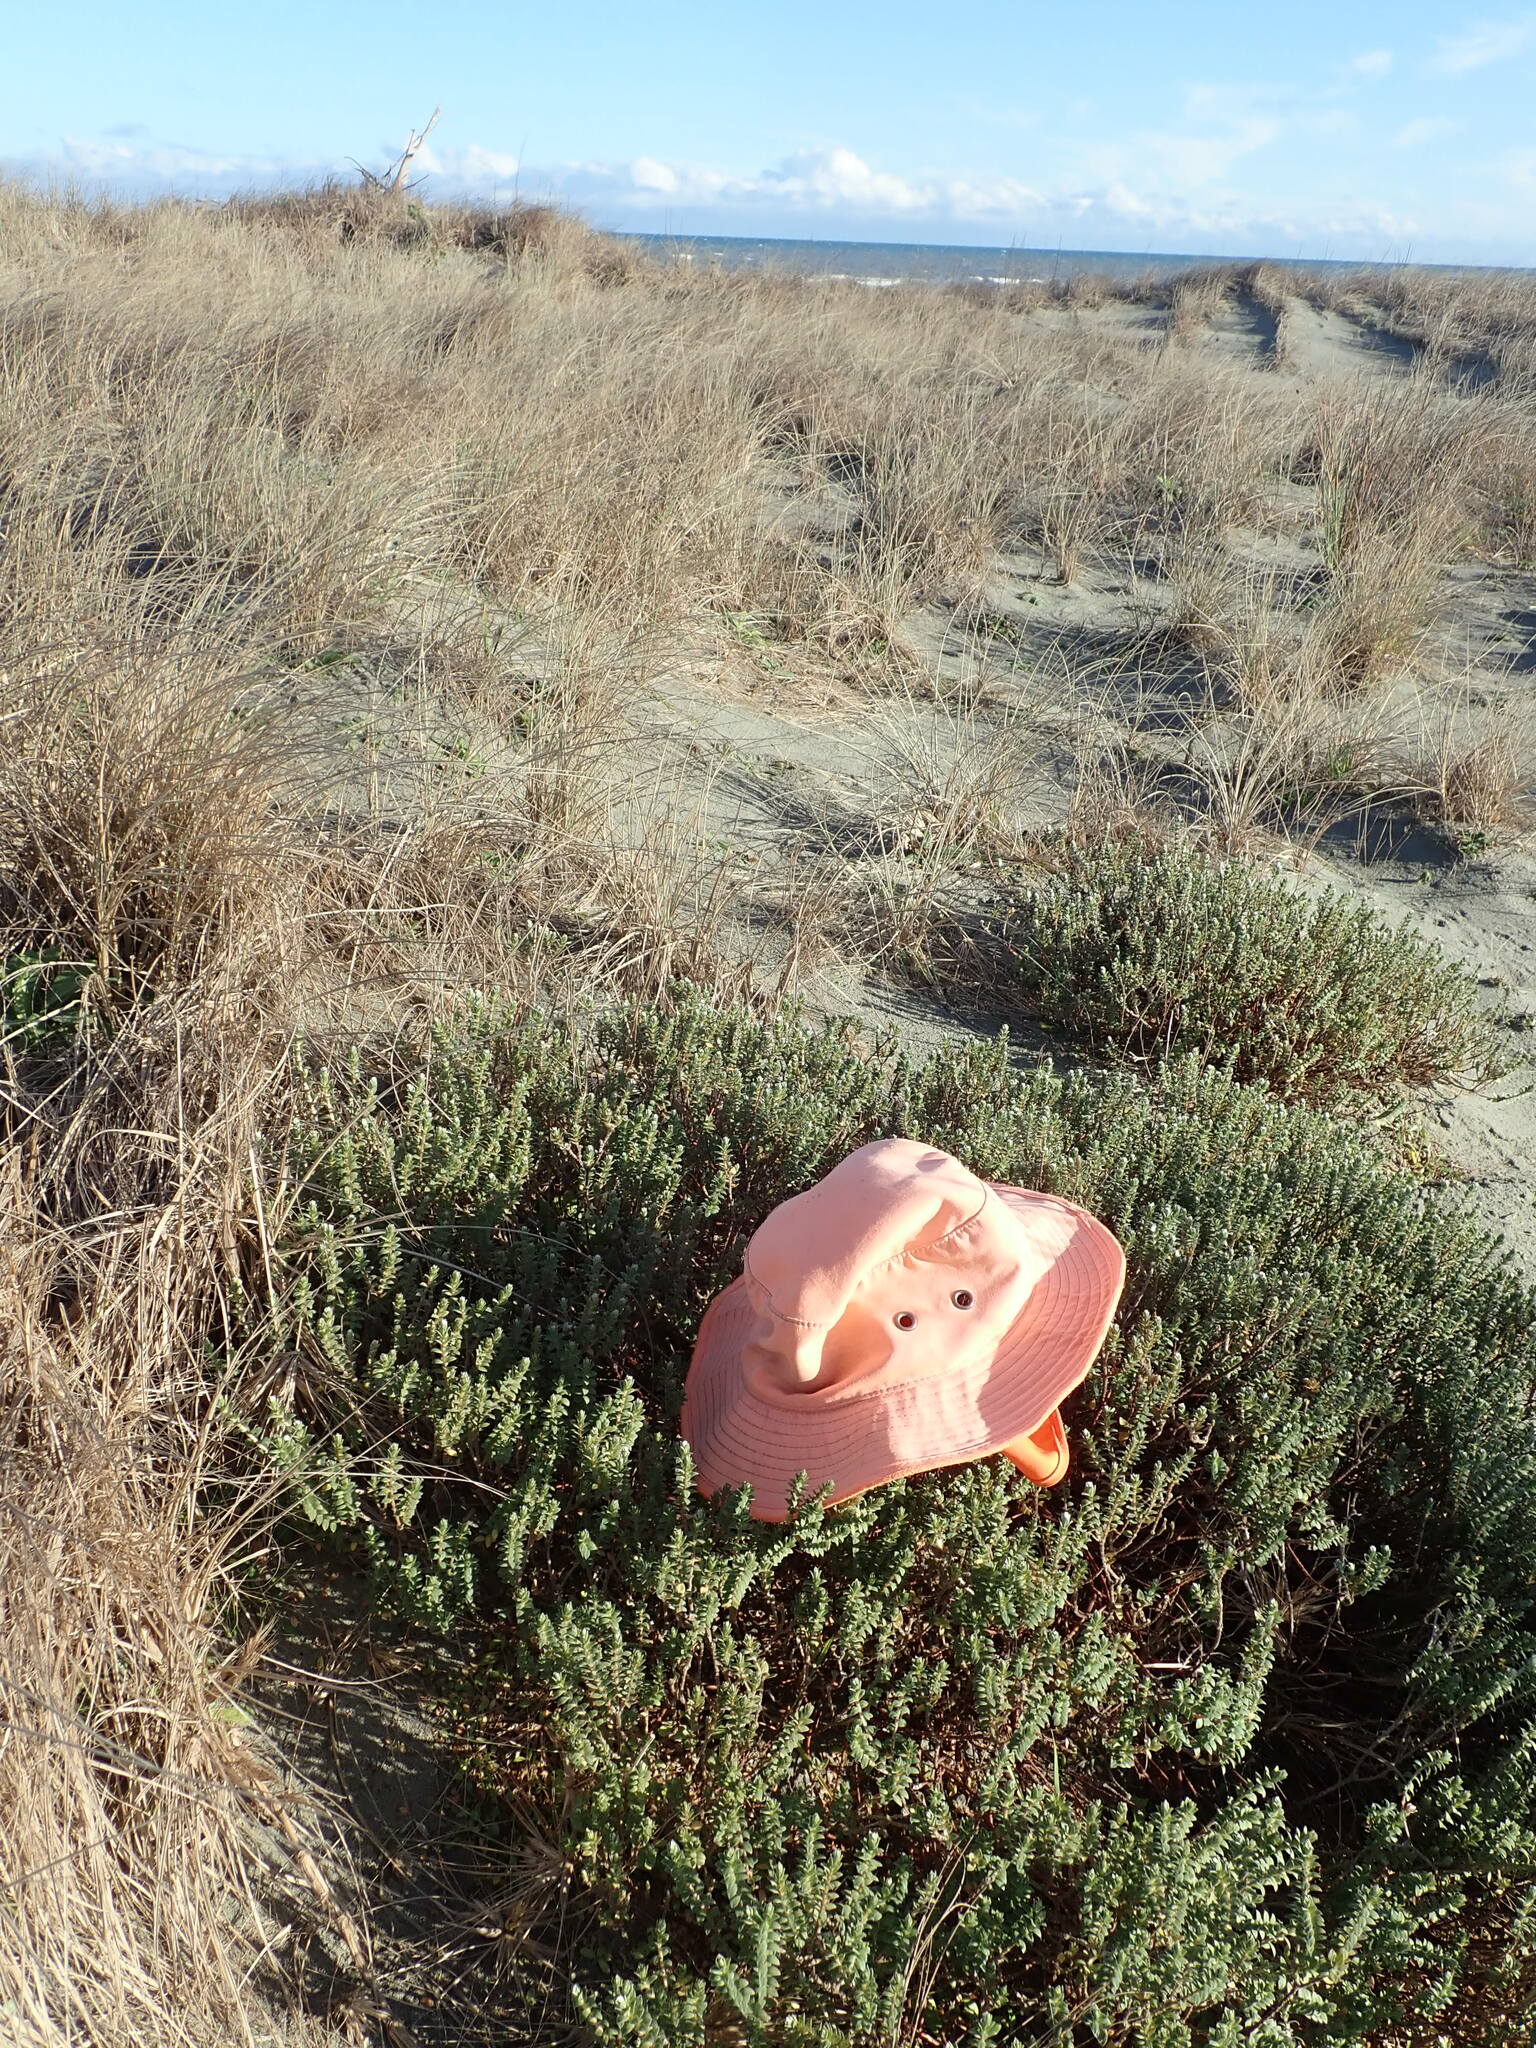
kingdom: Animalia
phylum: Arthropoda
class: Arachnida
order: Araneae
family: Theridiidae
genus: Steatoda
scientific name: Steatoda capensis
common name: Cobweb weaver
